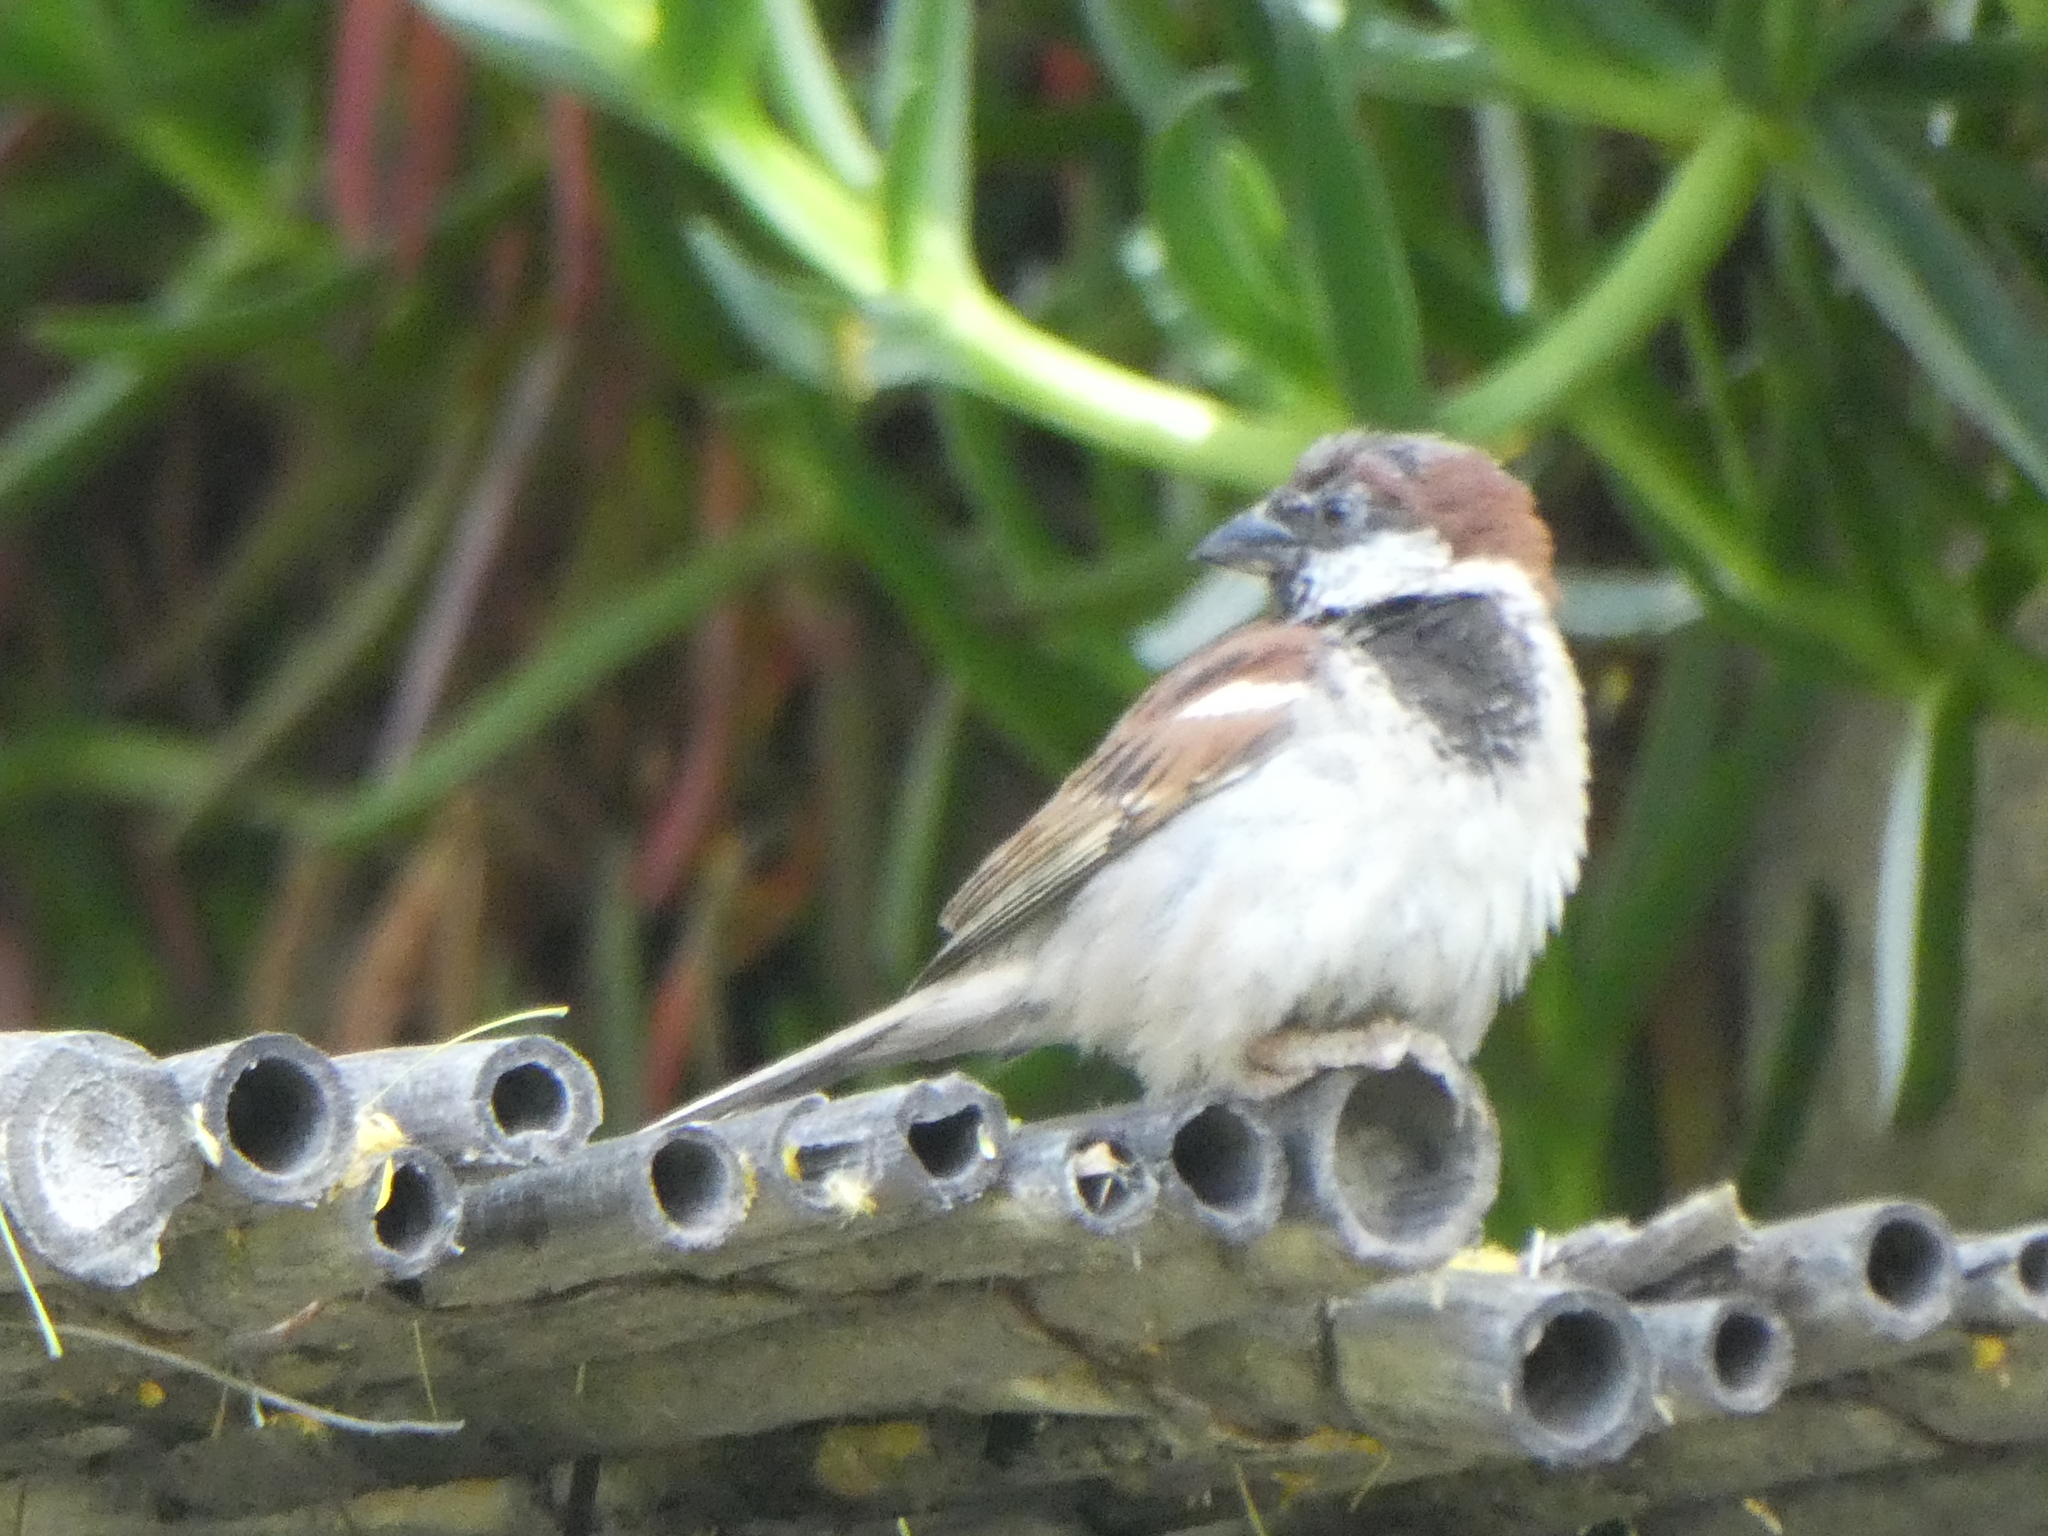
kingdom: Animalia
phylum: Chordata
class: Aves
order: Passeriformes
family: Passeridae
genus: Passer
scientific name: Passer domesticus
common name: House sparrow
